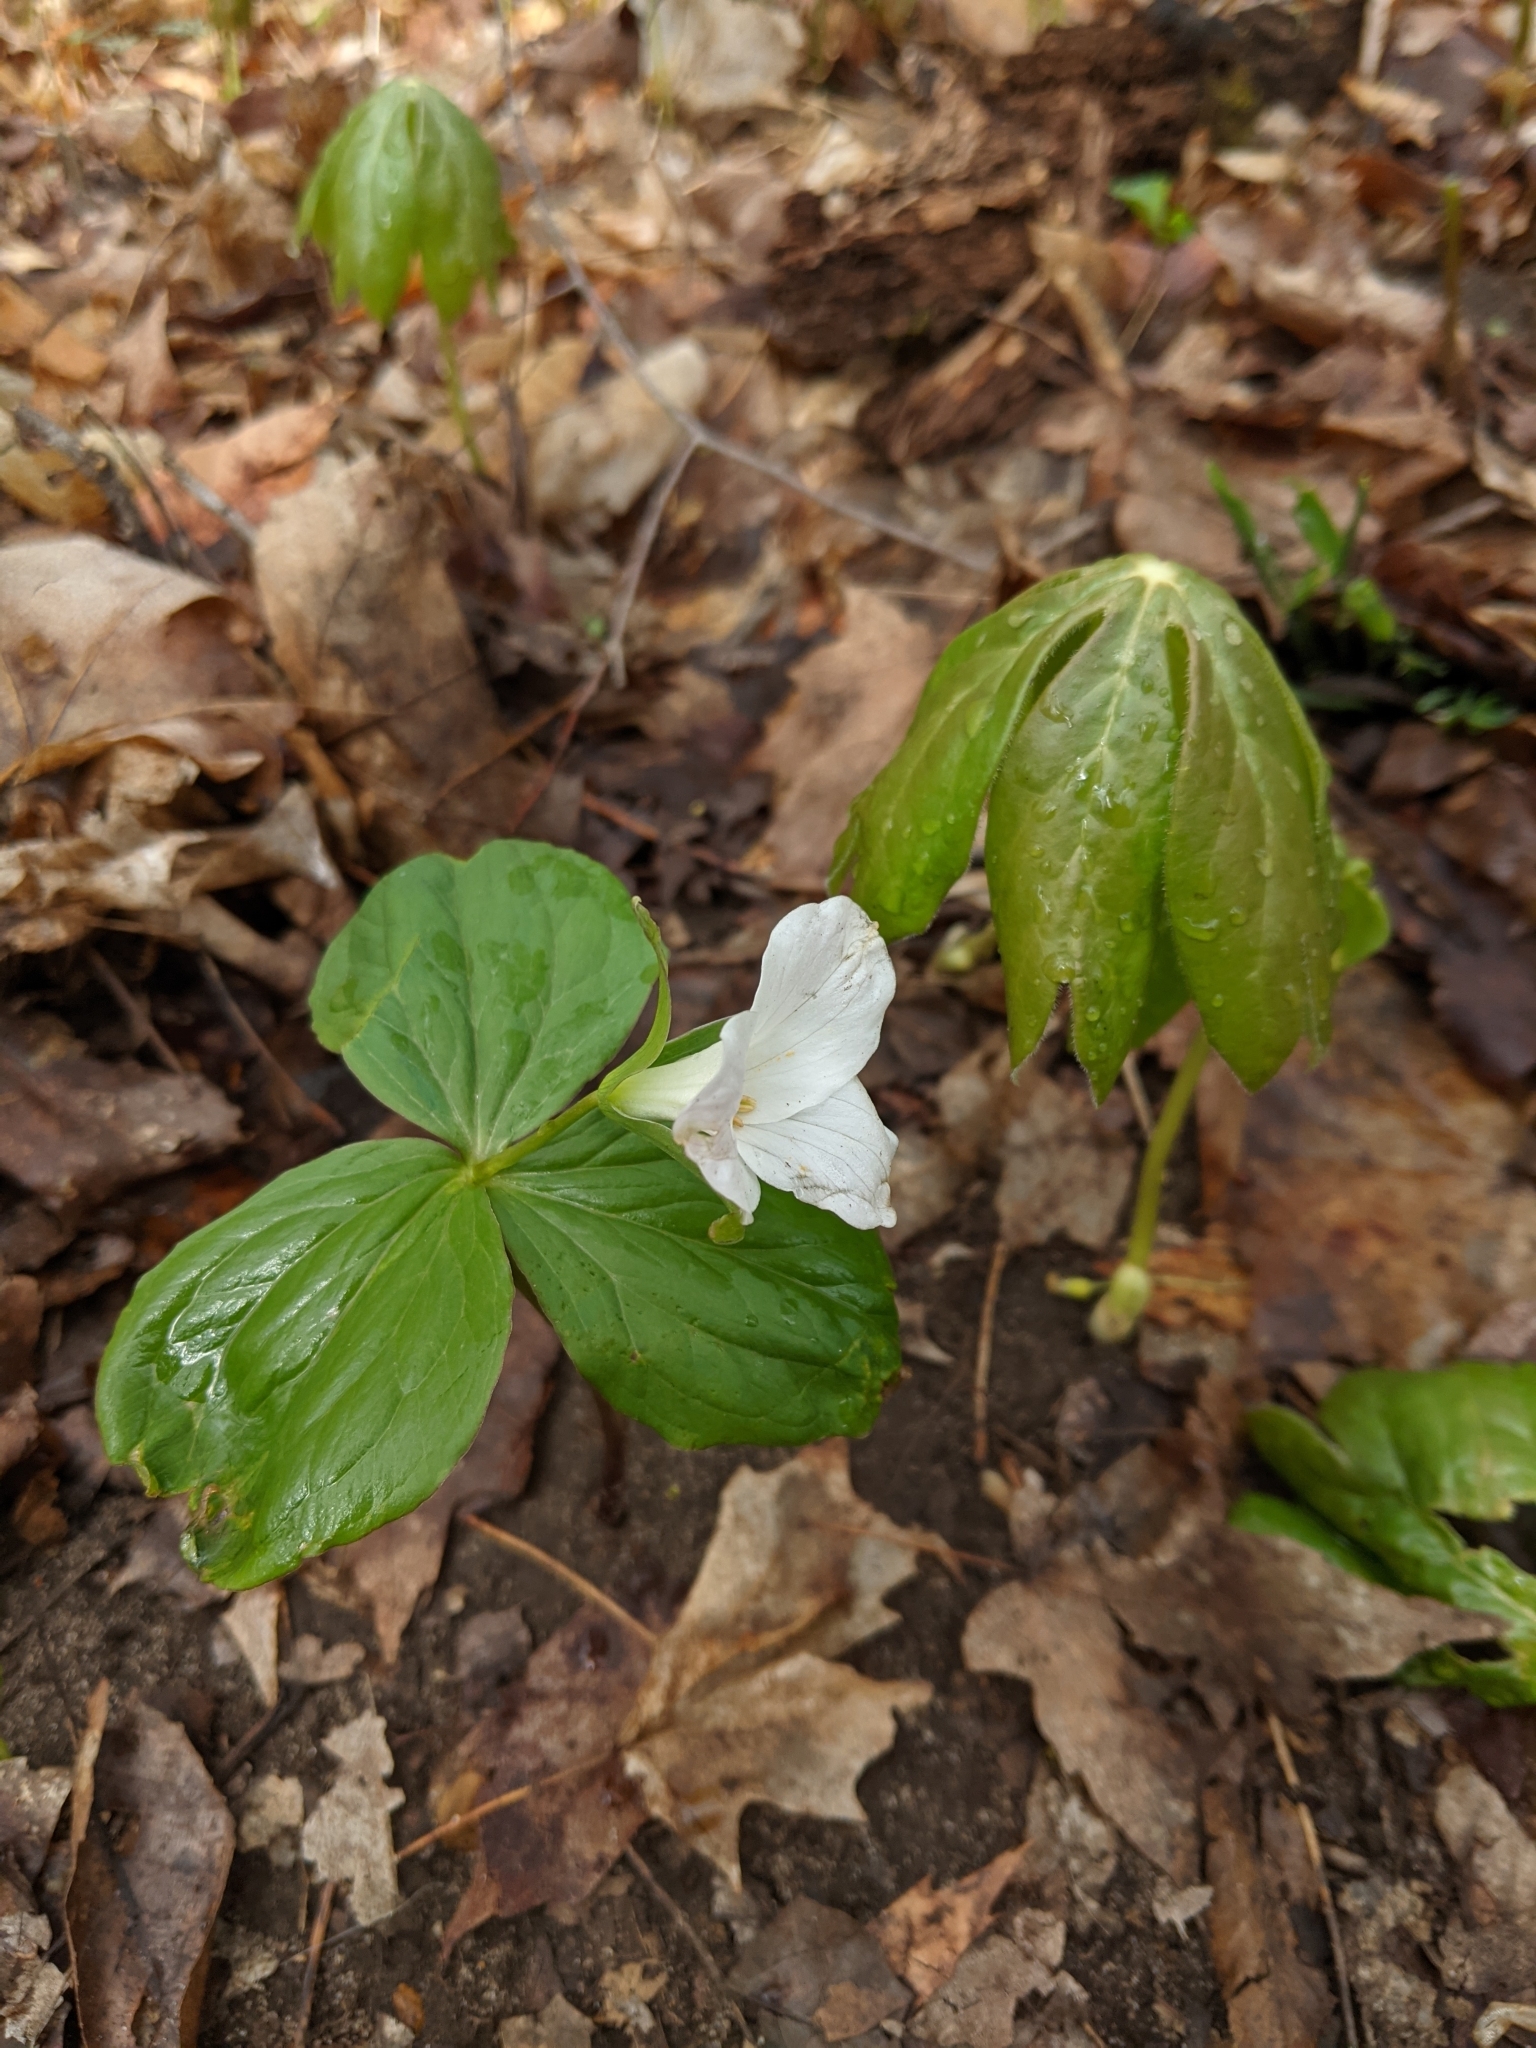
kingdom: Plantae
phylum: Tracheophyta
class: Liliopsida
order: Liliales
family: Melanthiaceae
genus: Trillium
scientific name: Trillium grandiflorum
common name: Great white trillium
